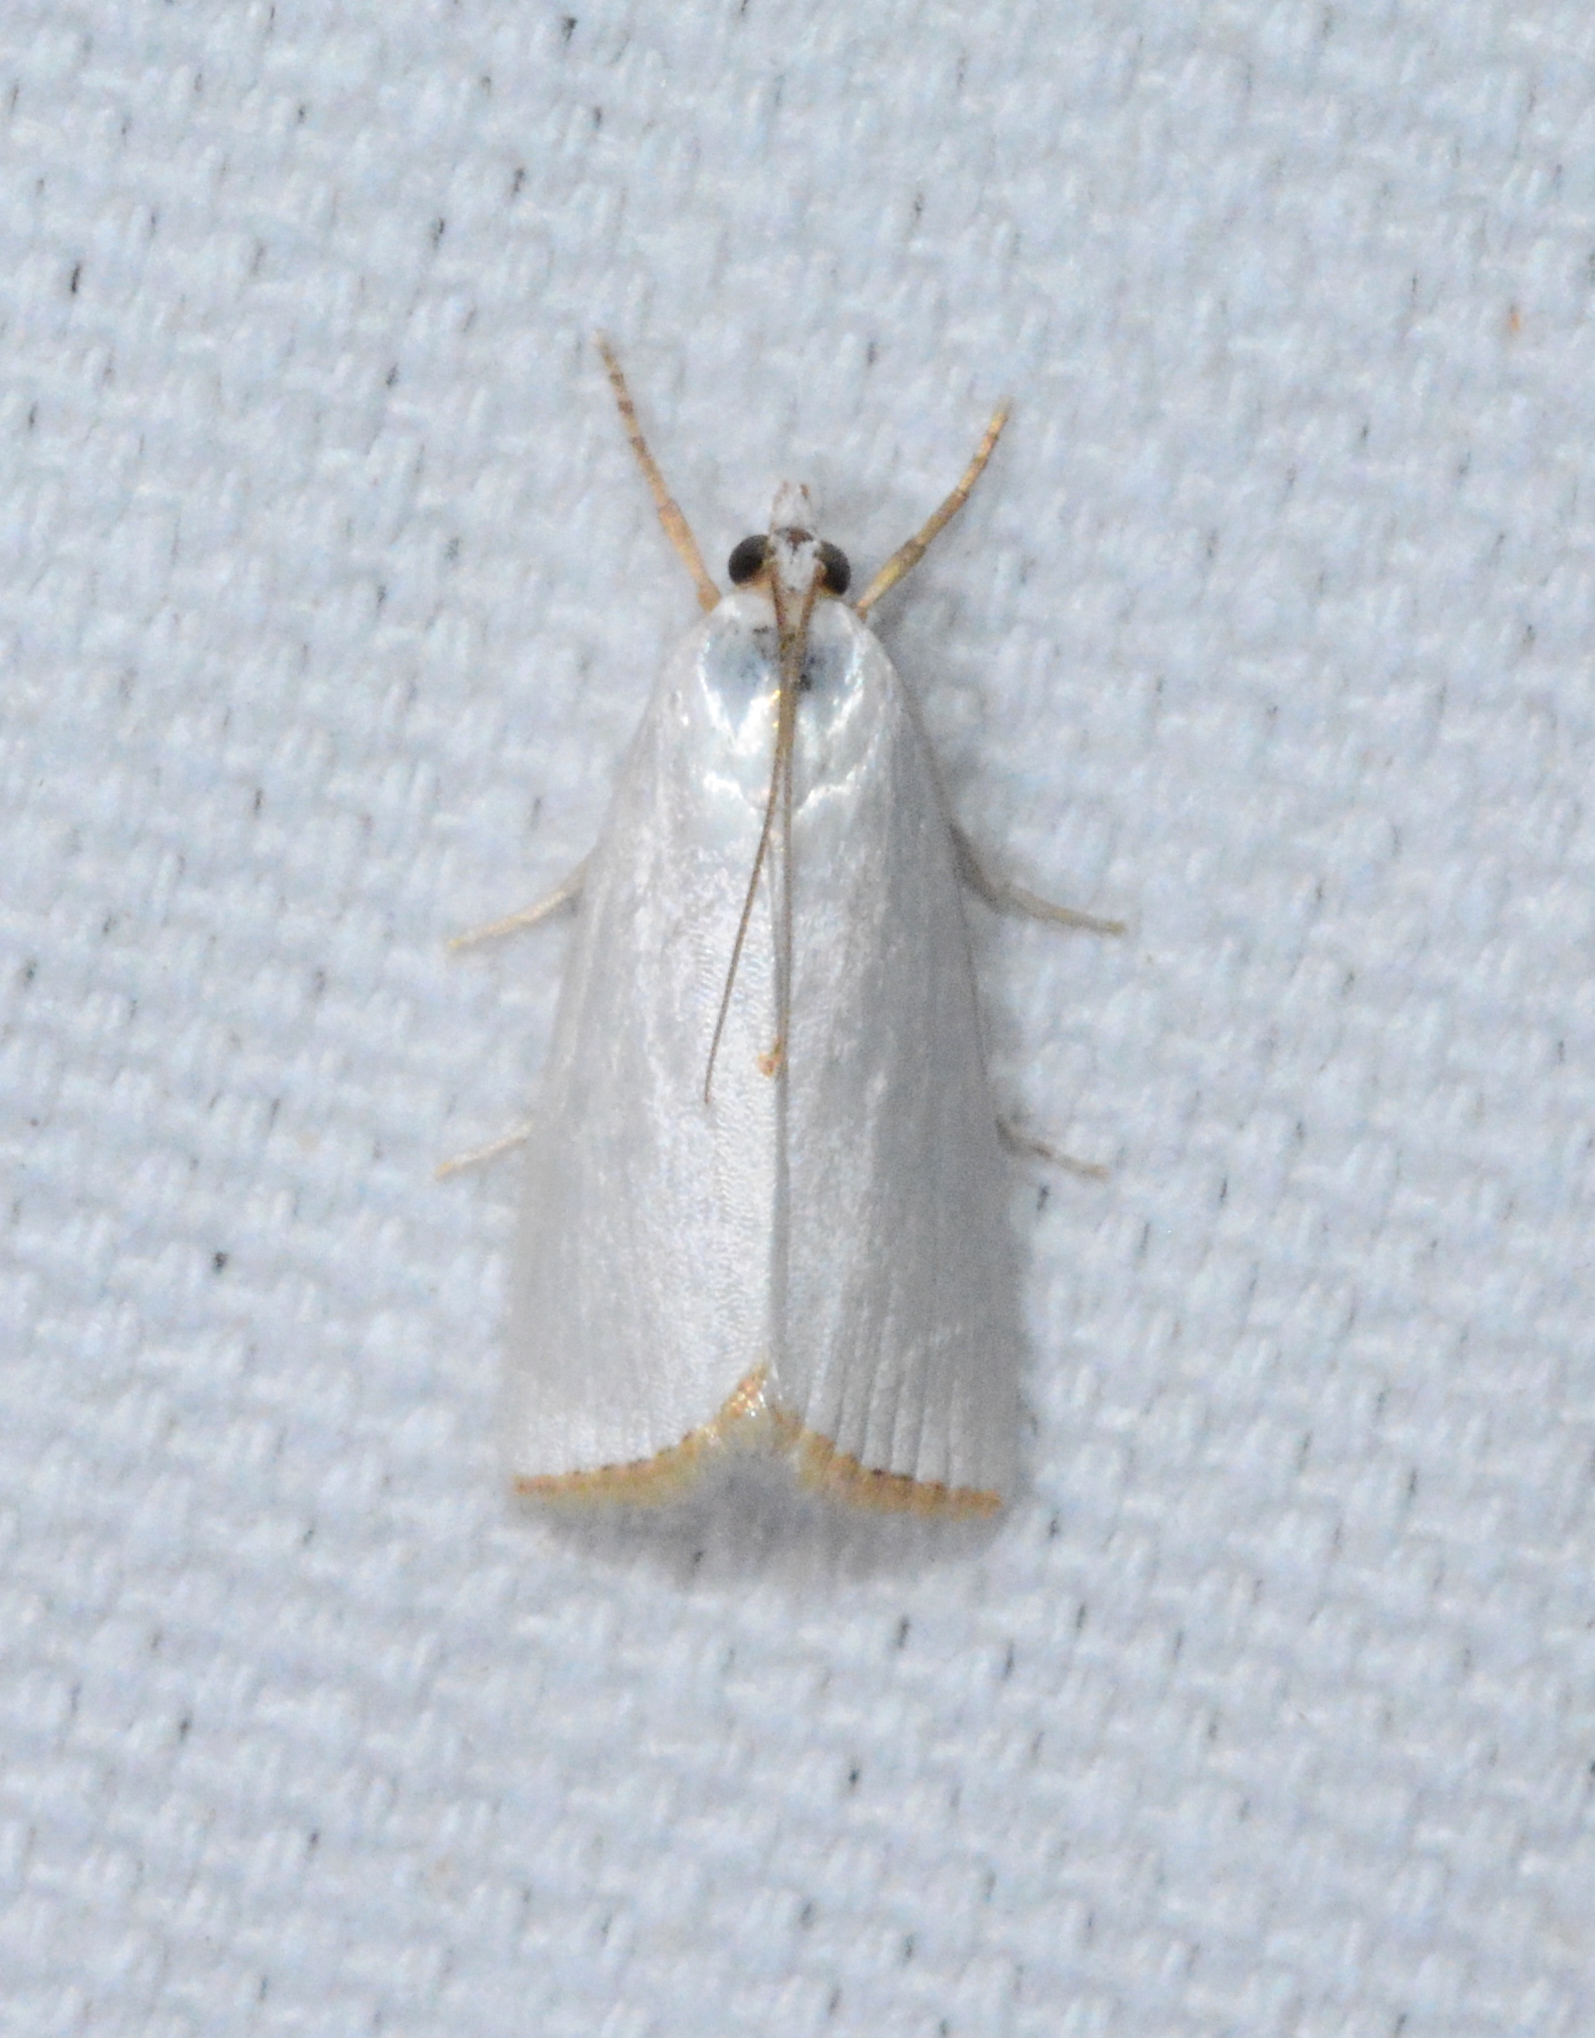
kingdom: Animalia
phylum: Arthropoda
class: Insecta
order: Lepidoptera
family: Crambidae
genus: Argyria
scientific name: Argyria nivalis
